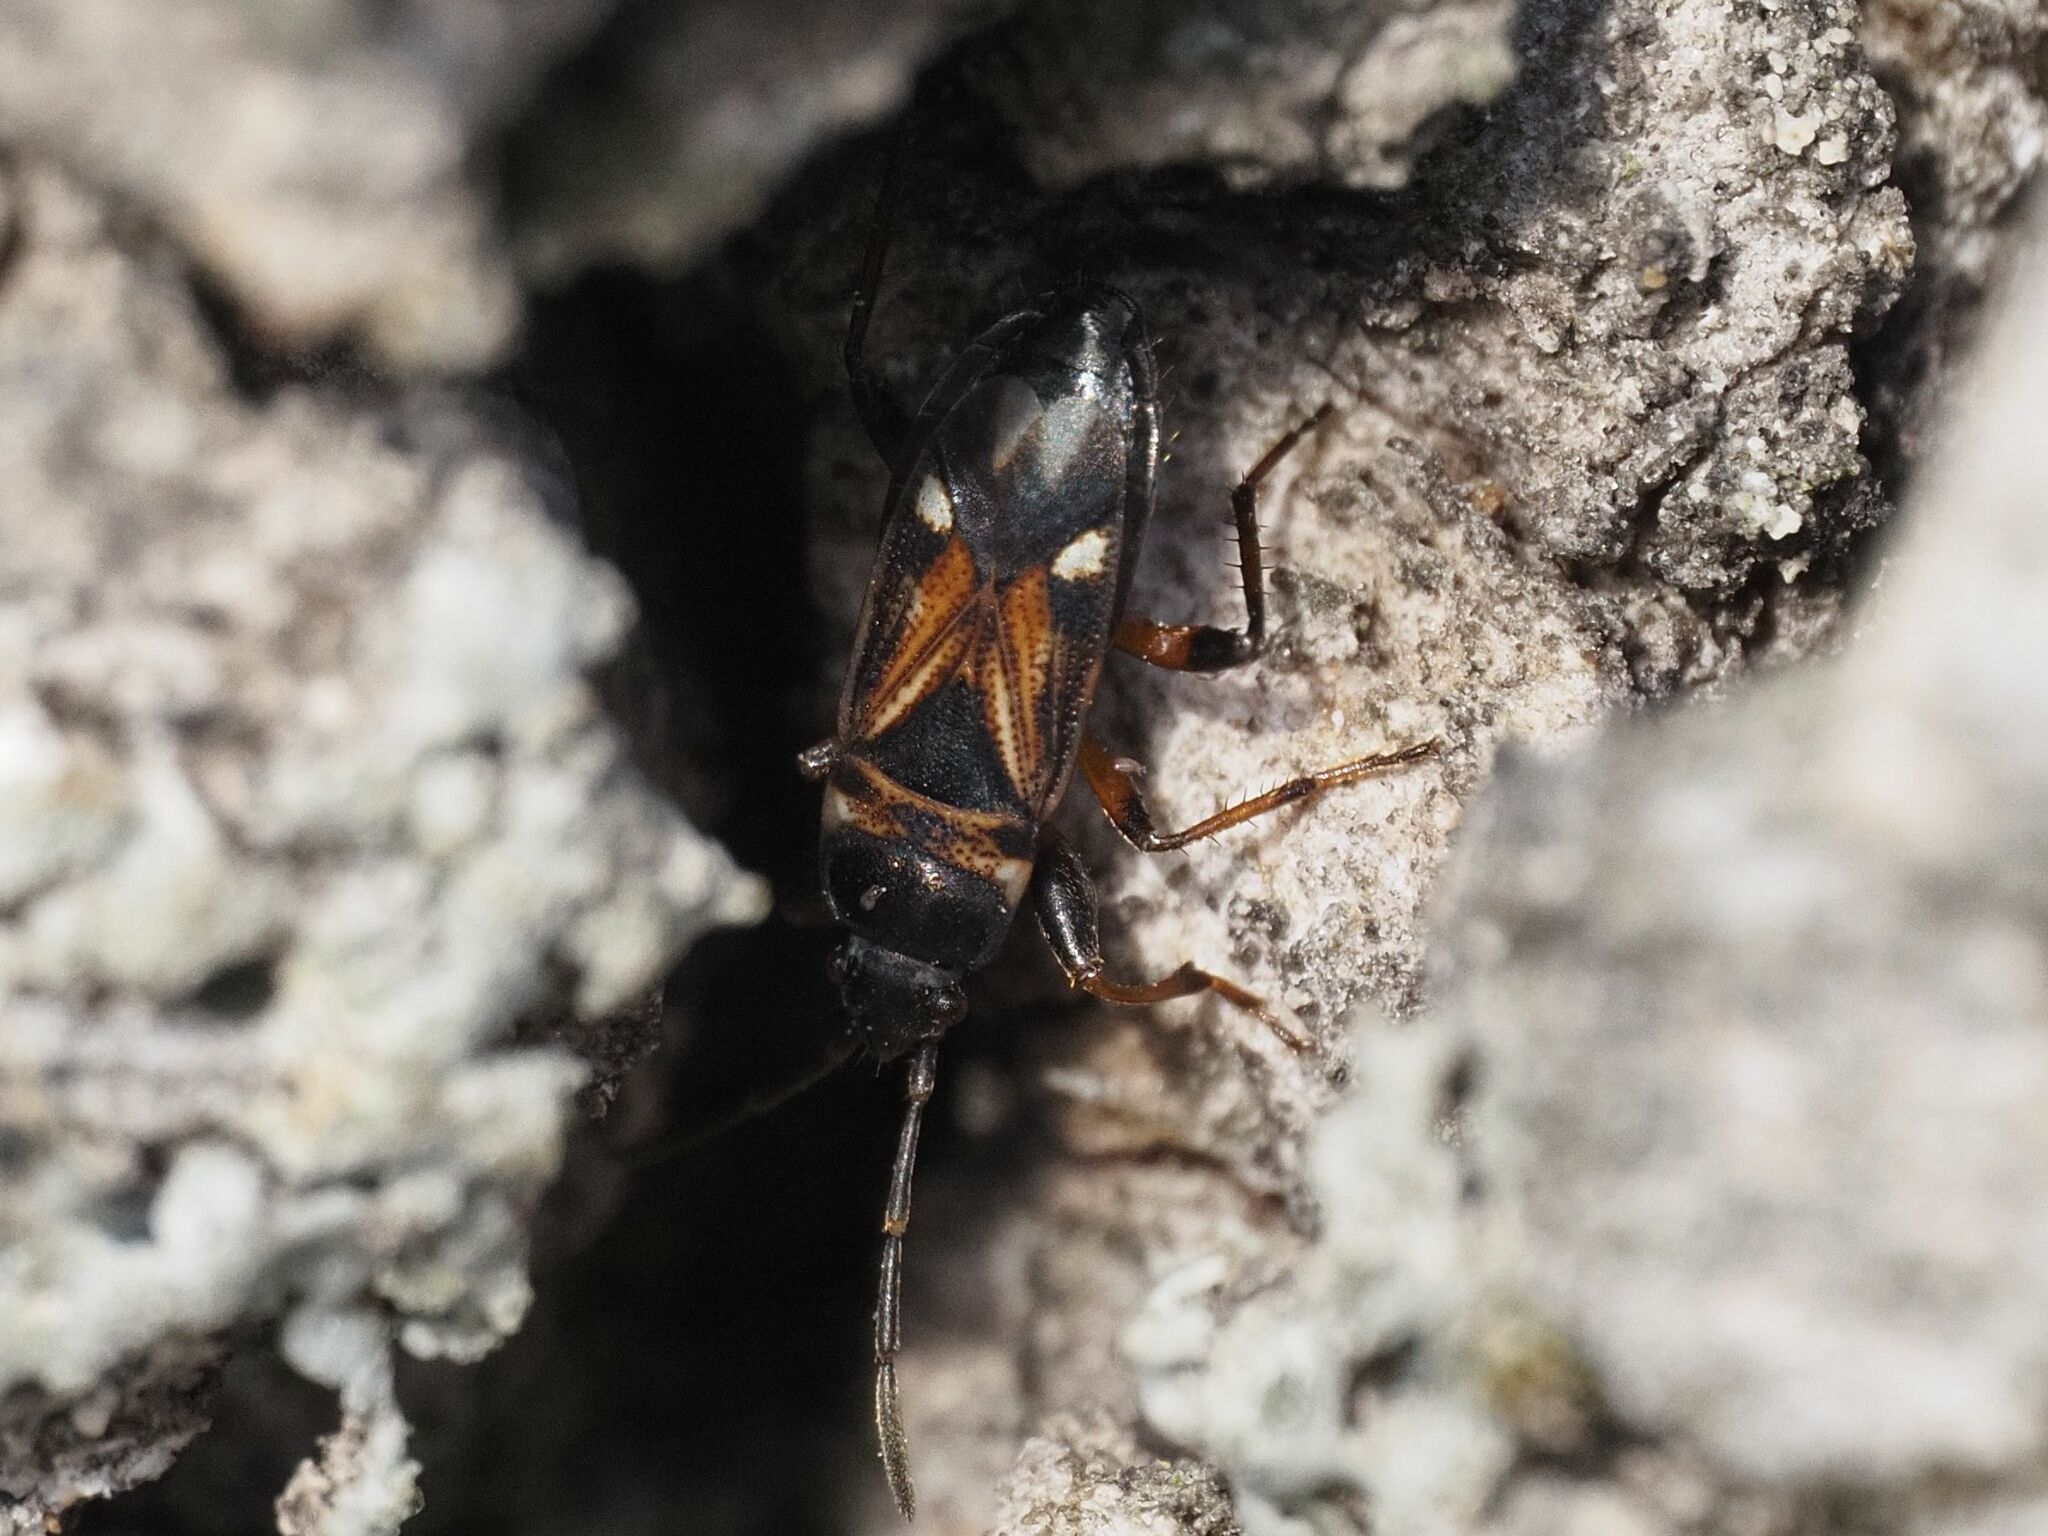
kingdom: Animalia
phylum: Arthropoda
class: Insecta
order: Hemiptera
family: Rhyparochromidae
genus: Raglius
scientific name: Raglius alboacuminatus
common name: Dirt-colored seed bug
